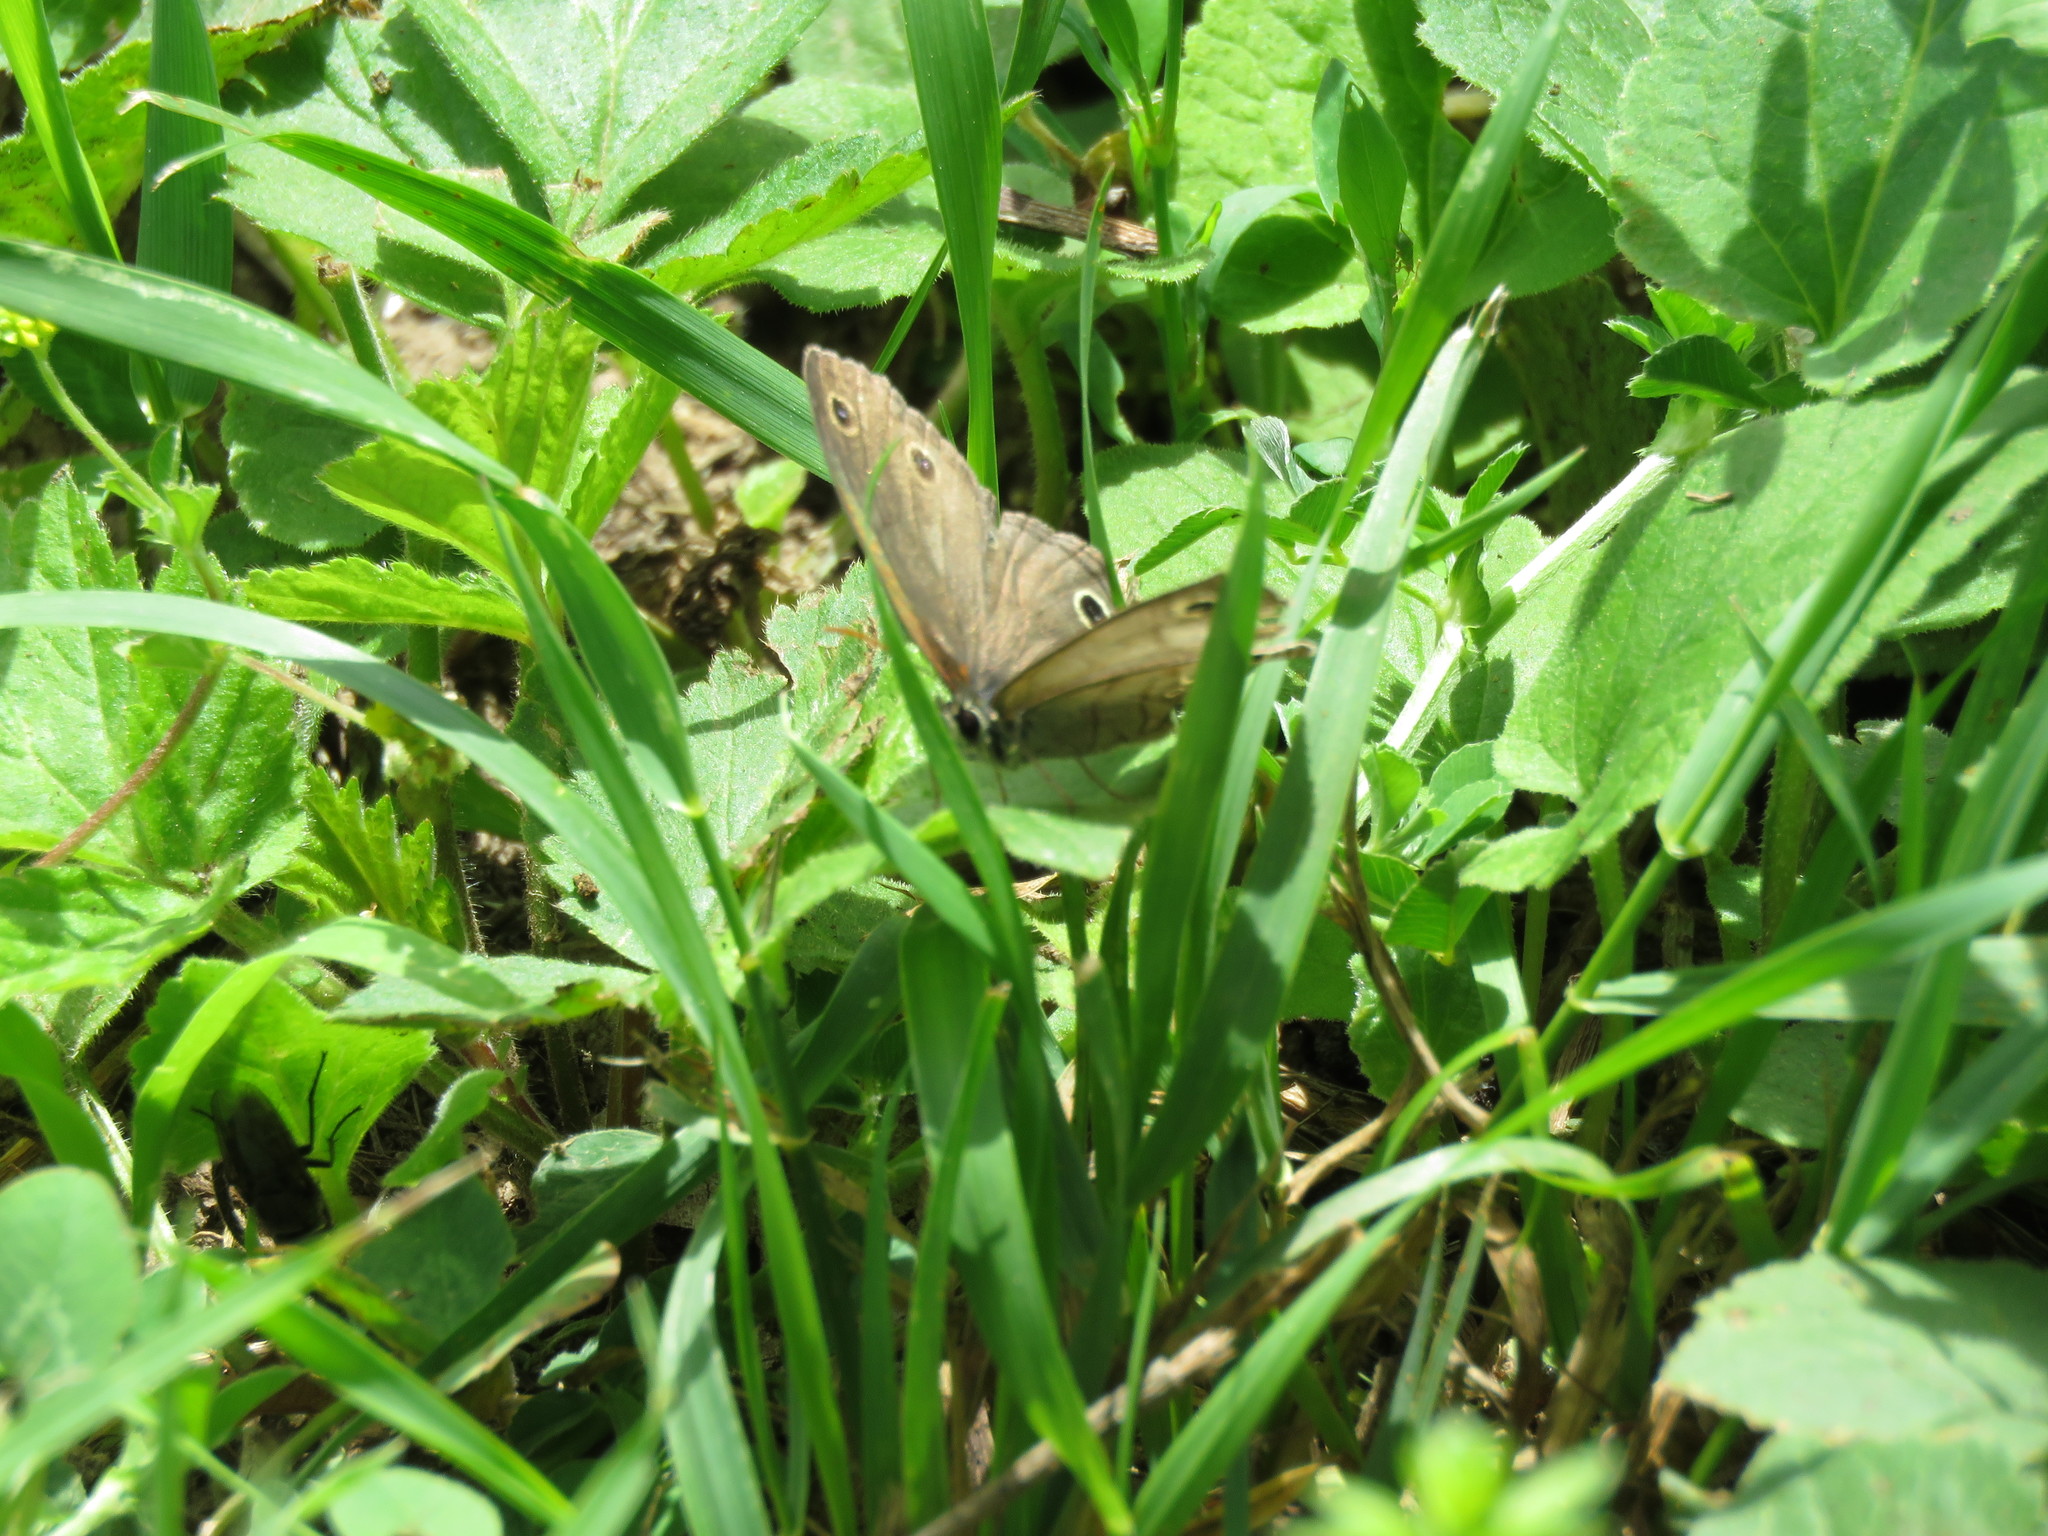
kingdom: Animalia
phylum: Arthropoda
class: Insecta
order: Lepidoptera
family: Nymphalidae
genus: Euptychia
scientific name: Euptychia cymela
